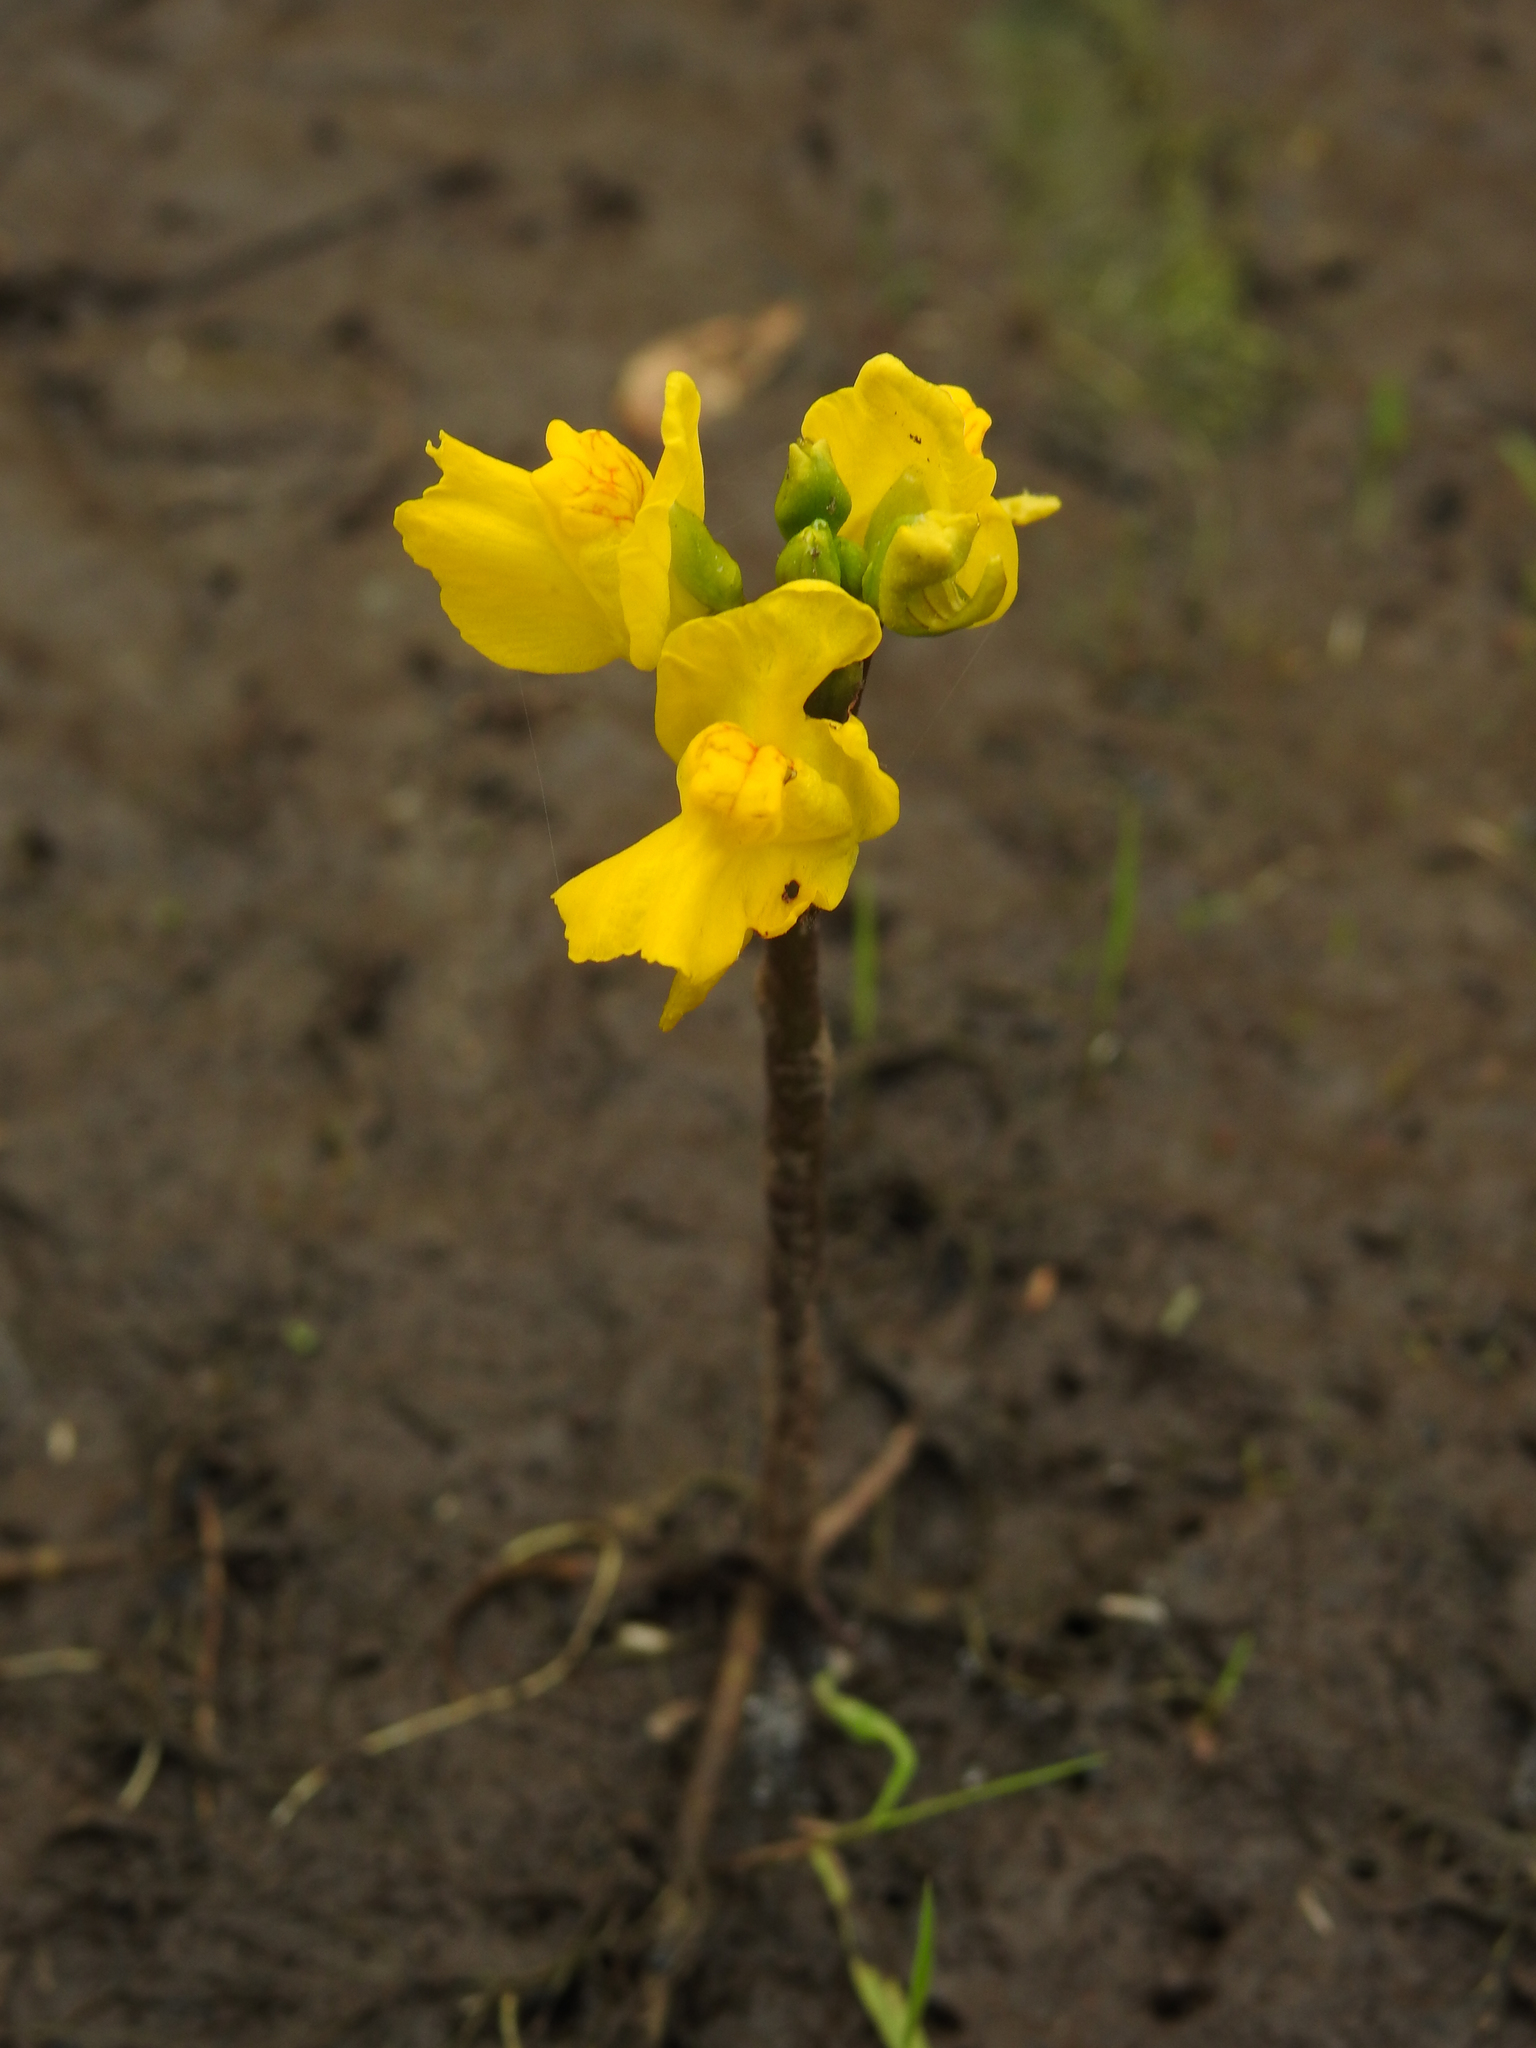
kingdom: Plantae
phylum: Tracheophyta
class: Magnoliopsida
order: Lamiales
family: Lentibulariaceae
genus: Utricularia
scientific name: Utricularia macrorhiza
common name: Common bladderwort
